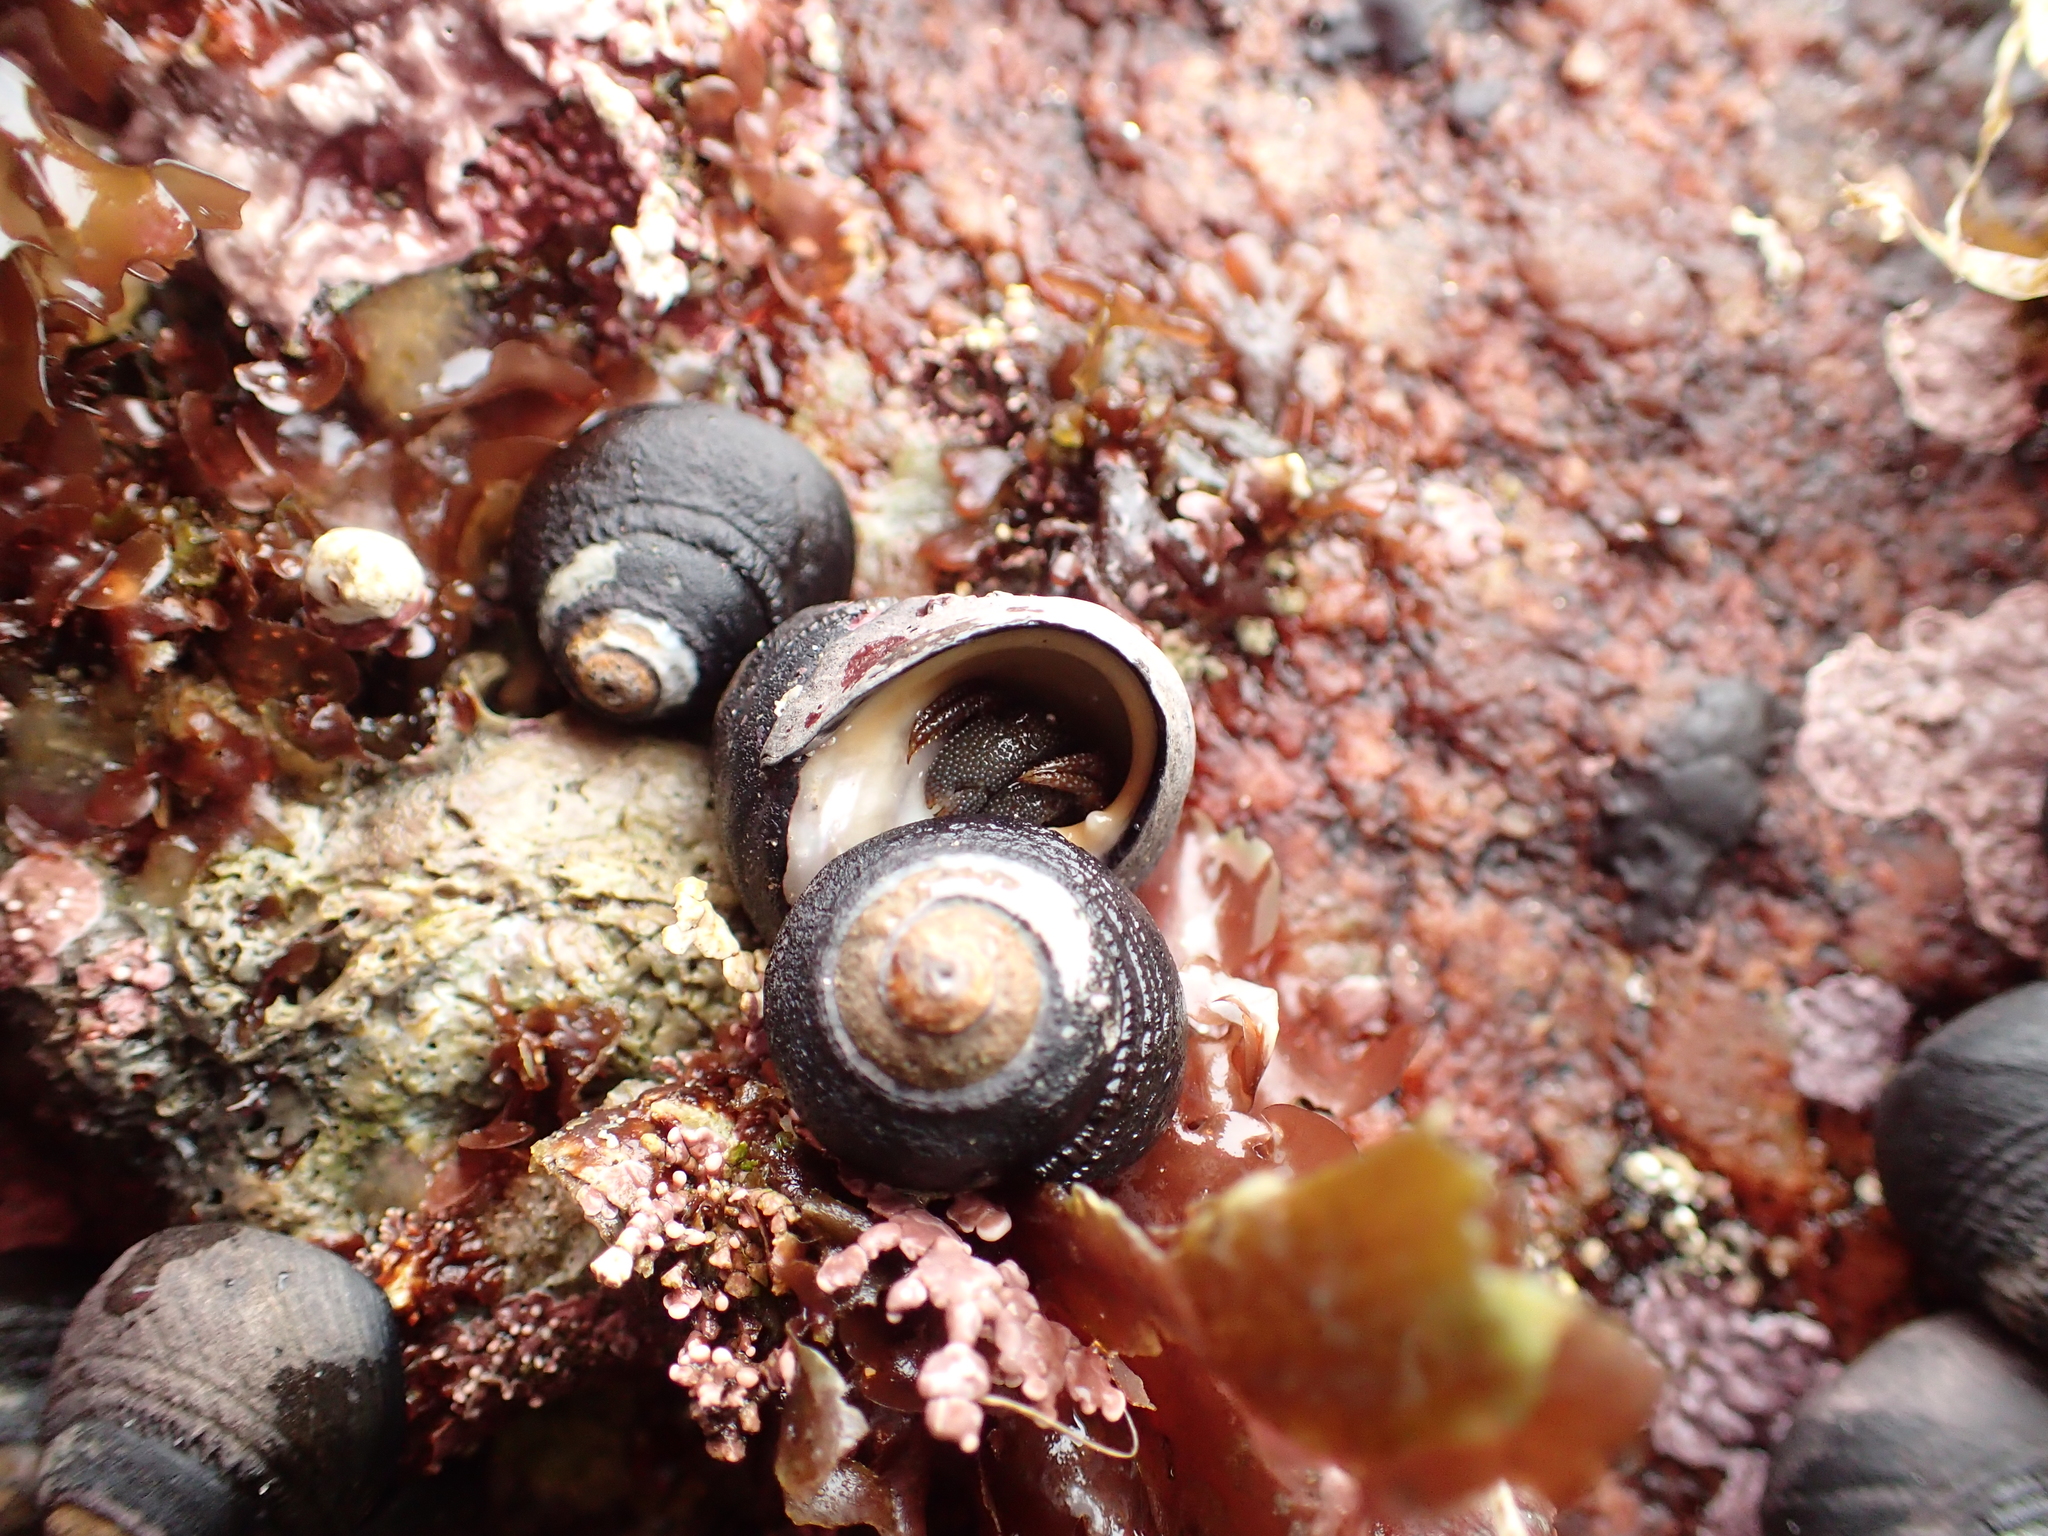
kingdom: Animalia
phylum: Arthropoda
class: Malacostraca
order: Decapoda
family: Paguridae
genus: Pagurus
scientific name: Pagurus granosimanus
